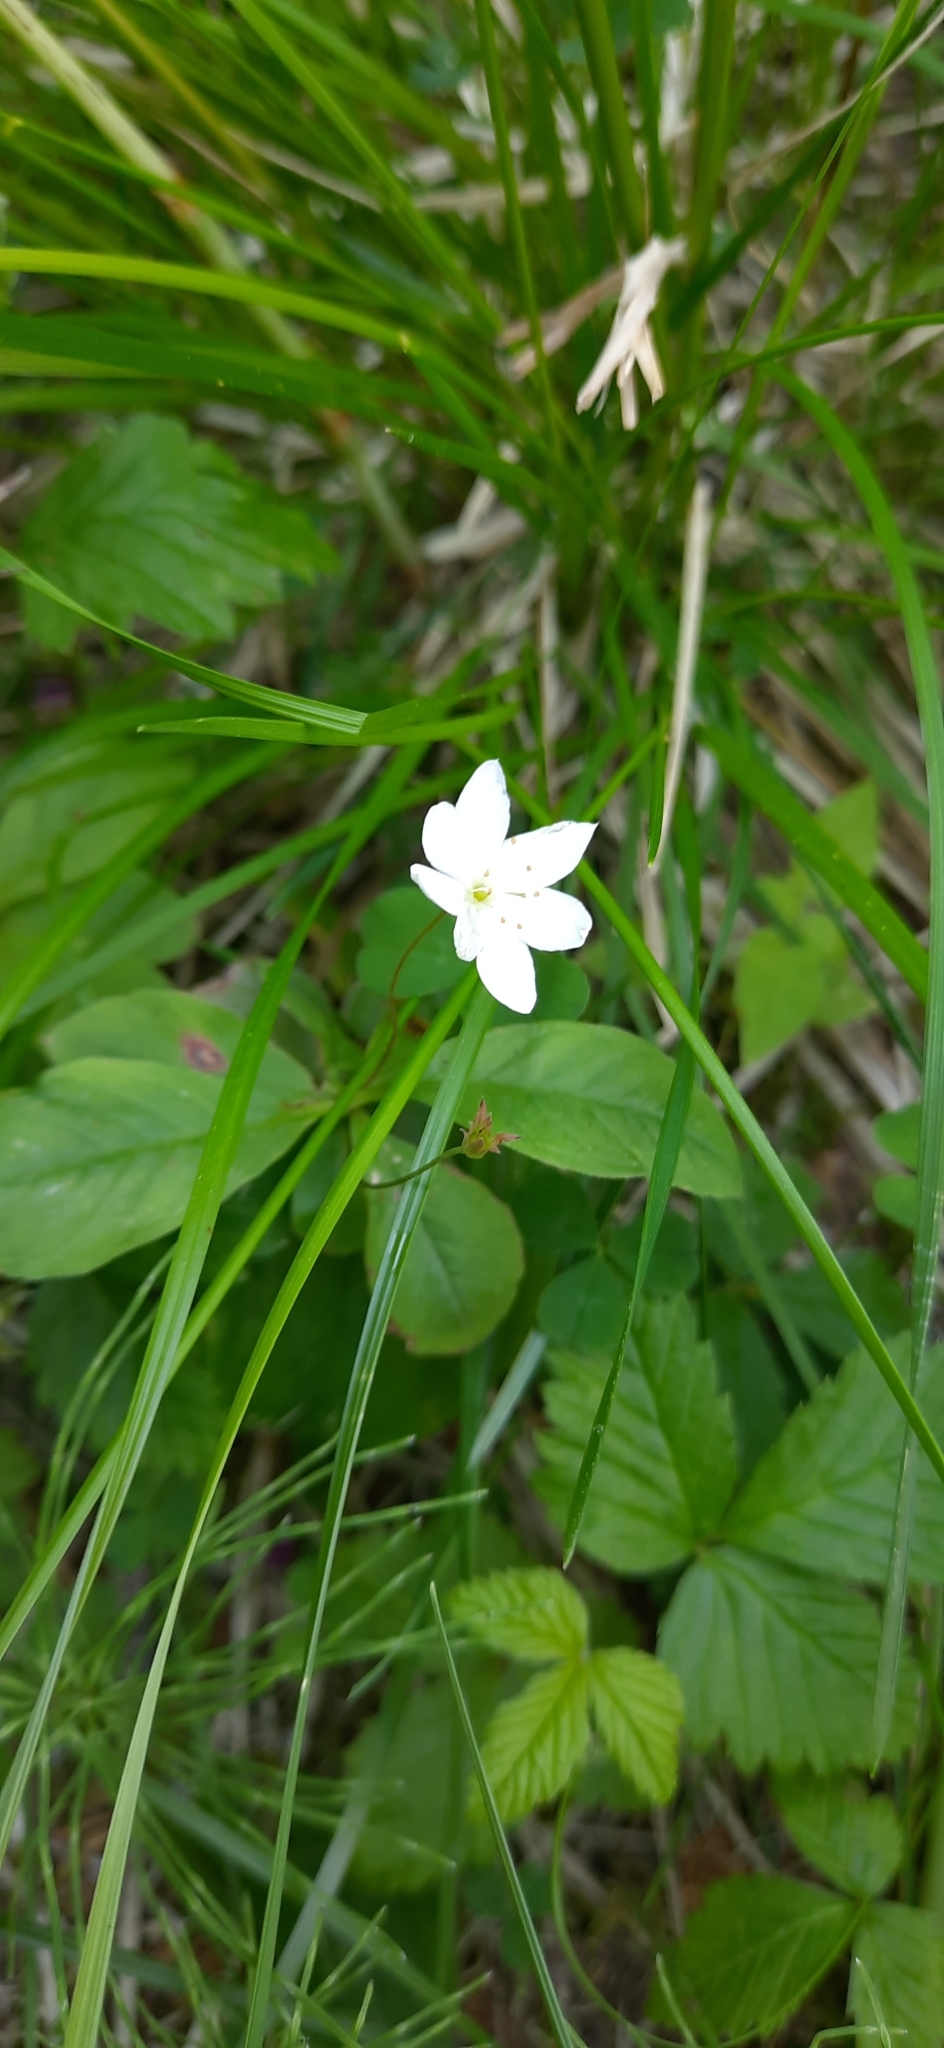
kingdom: Plantae
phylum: Tracheophyta
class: Magnoliopsida
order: Ericales
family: Primulaceae
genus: Lysimachia
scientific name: Lysimachia europaea
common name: Arctic starflower
